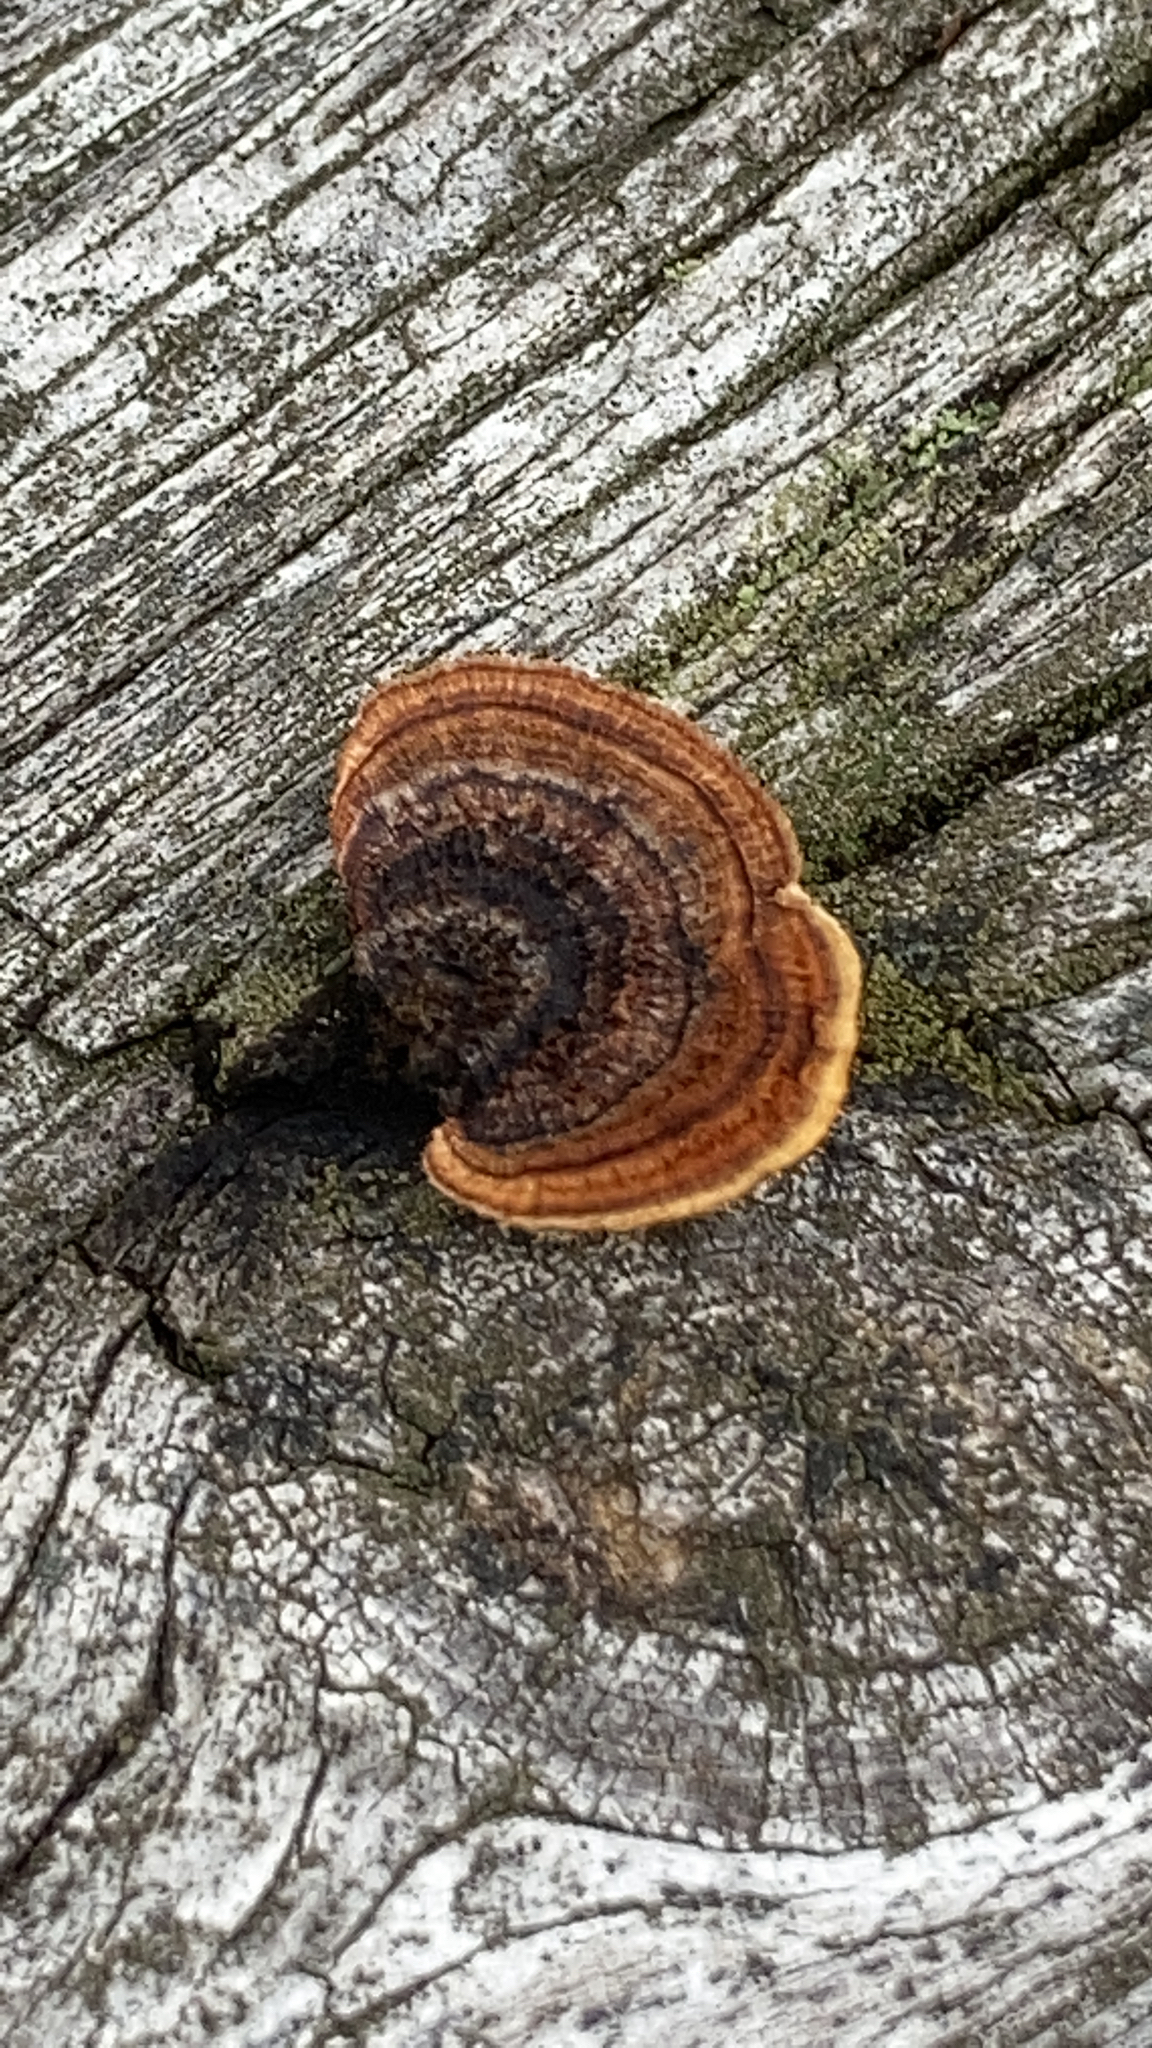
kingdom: Fungi
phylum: Basidiomycota
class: Agaricomycetes
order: Gloeophyllales
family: Gloeophyllaceae
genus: Gloeophyllum
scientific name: Gloeophyllum sepiarium
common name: Conifer mazegill
